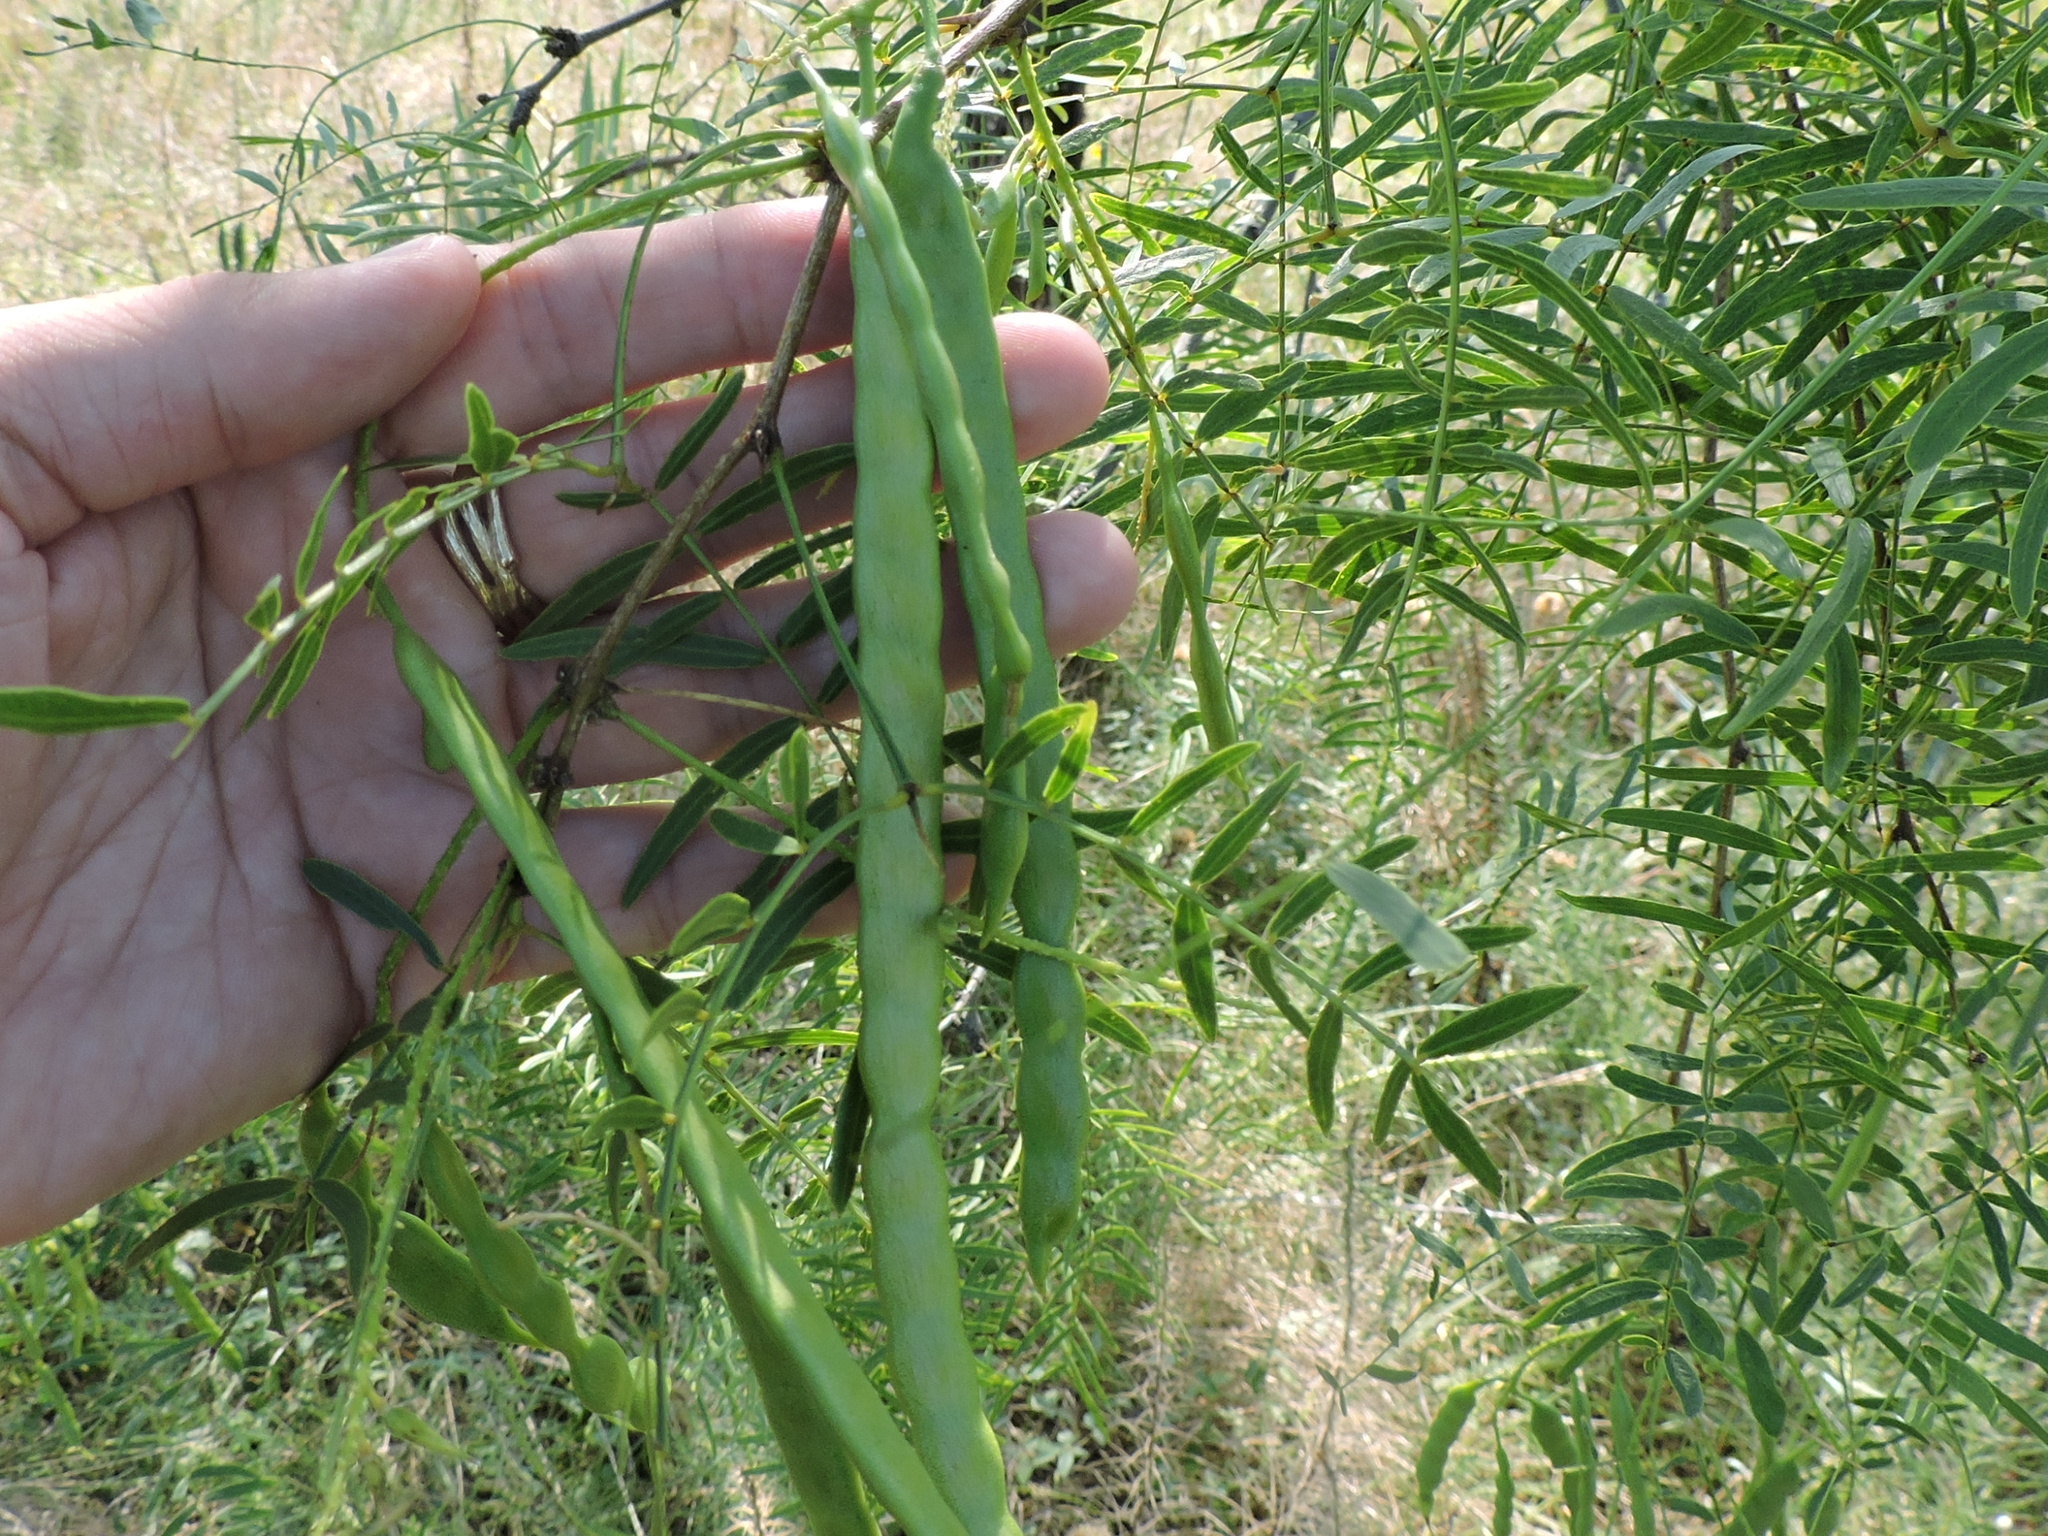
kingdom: Plantae
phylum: Tracheophyta
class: Magnoliopsida
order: Fabales
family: Fabaceae
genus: Prosopis
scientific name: Prosopis glandulosa
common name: Honey mesquite
